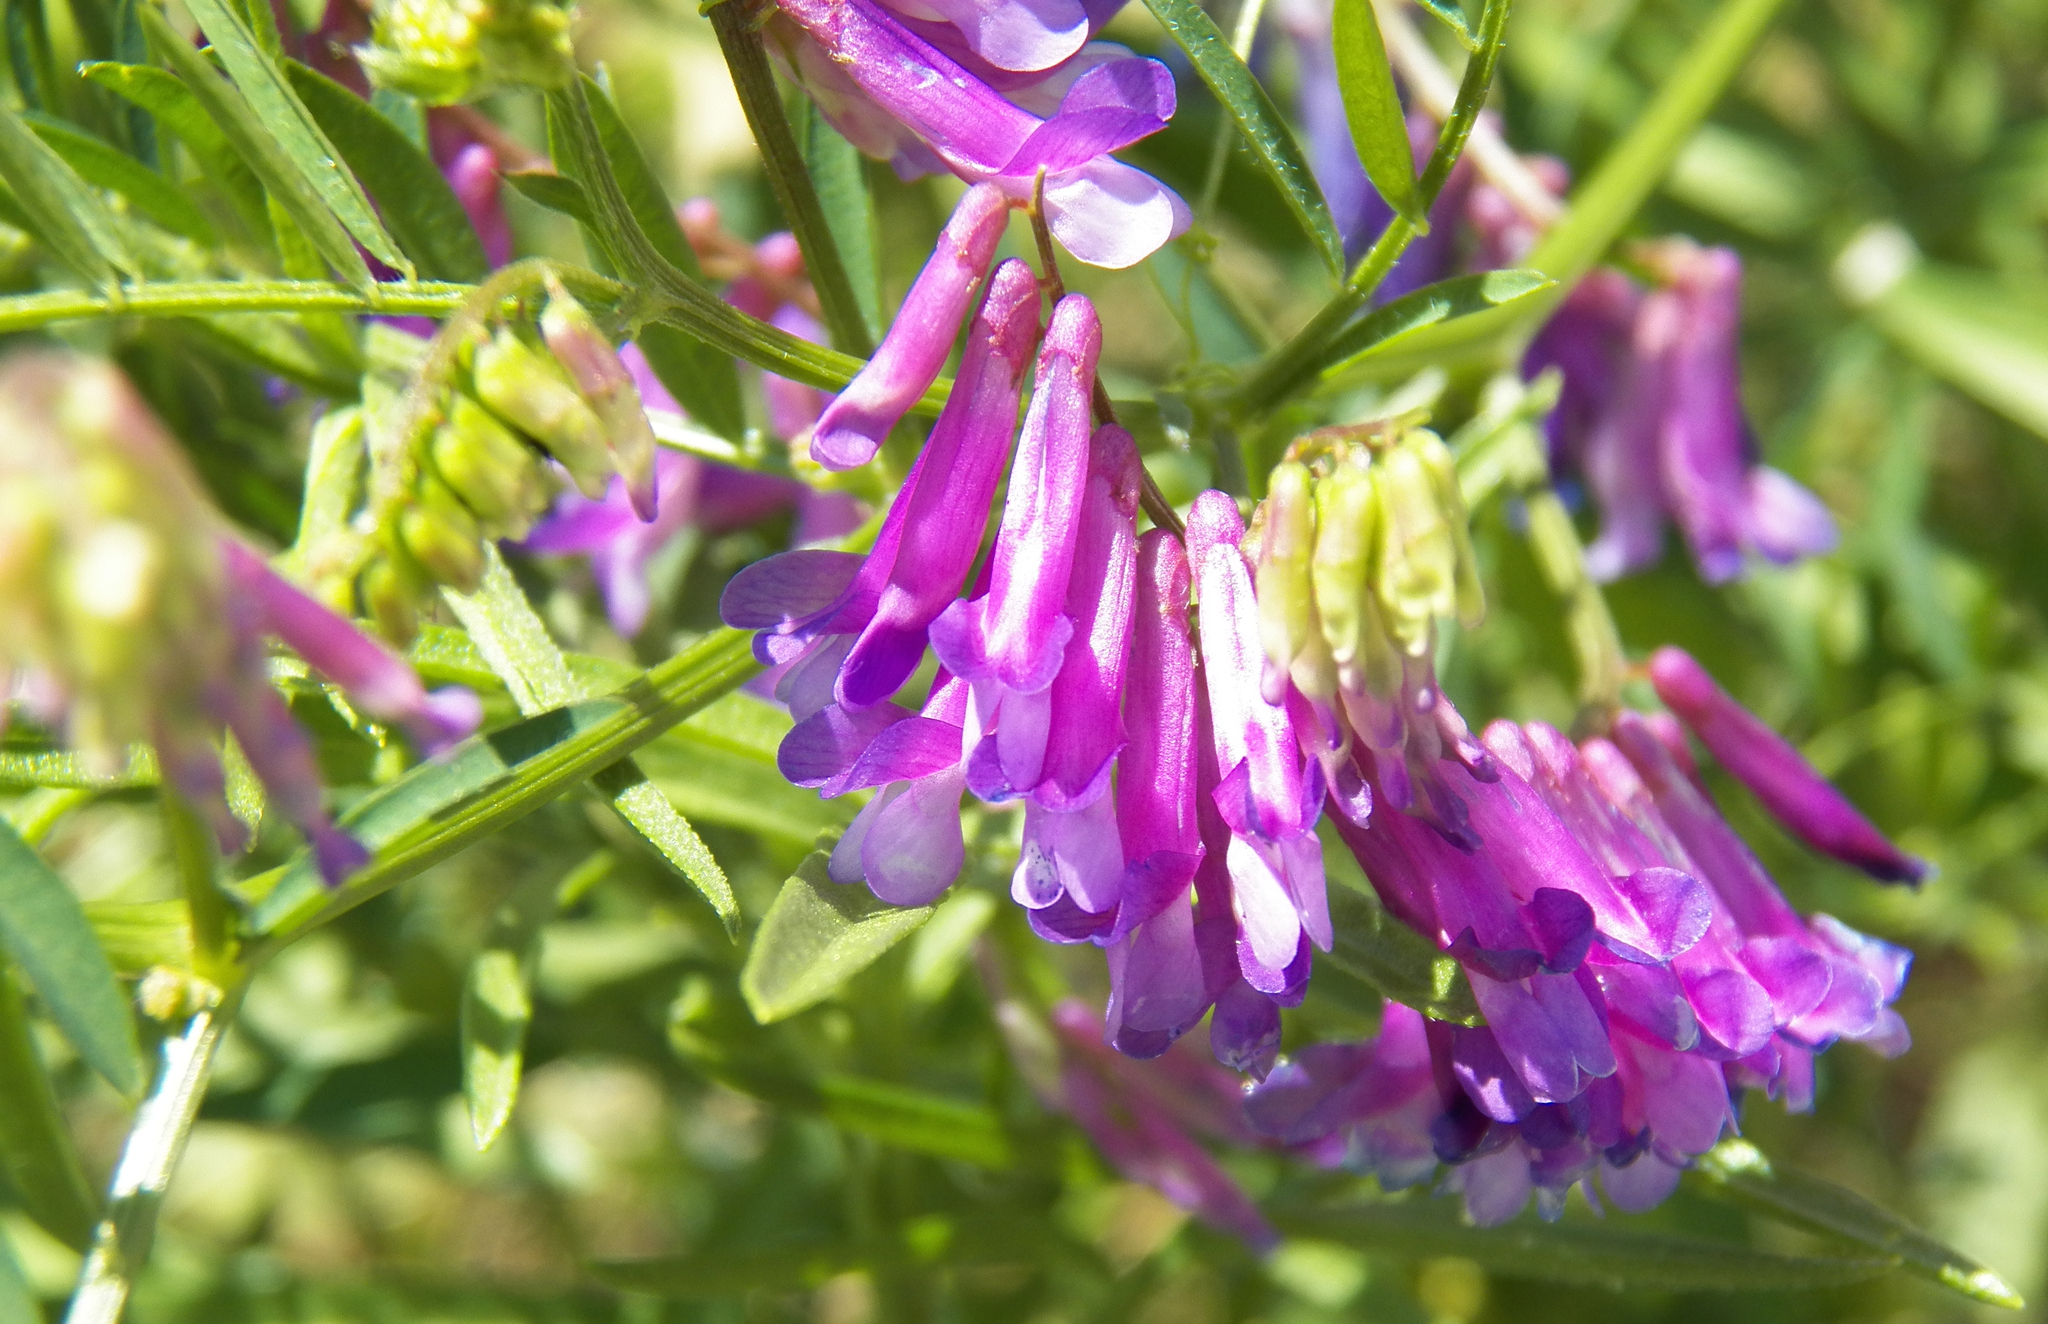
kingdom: Plantae
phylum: Tracheophyta
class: Magnoliopsida
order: Fabales
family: Fabaceae
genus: Vicia
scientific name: Vicia villosa
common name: Fodder vetch
